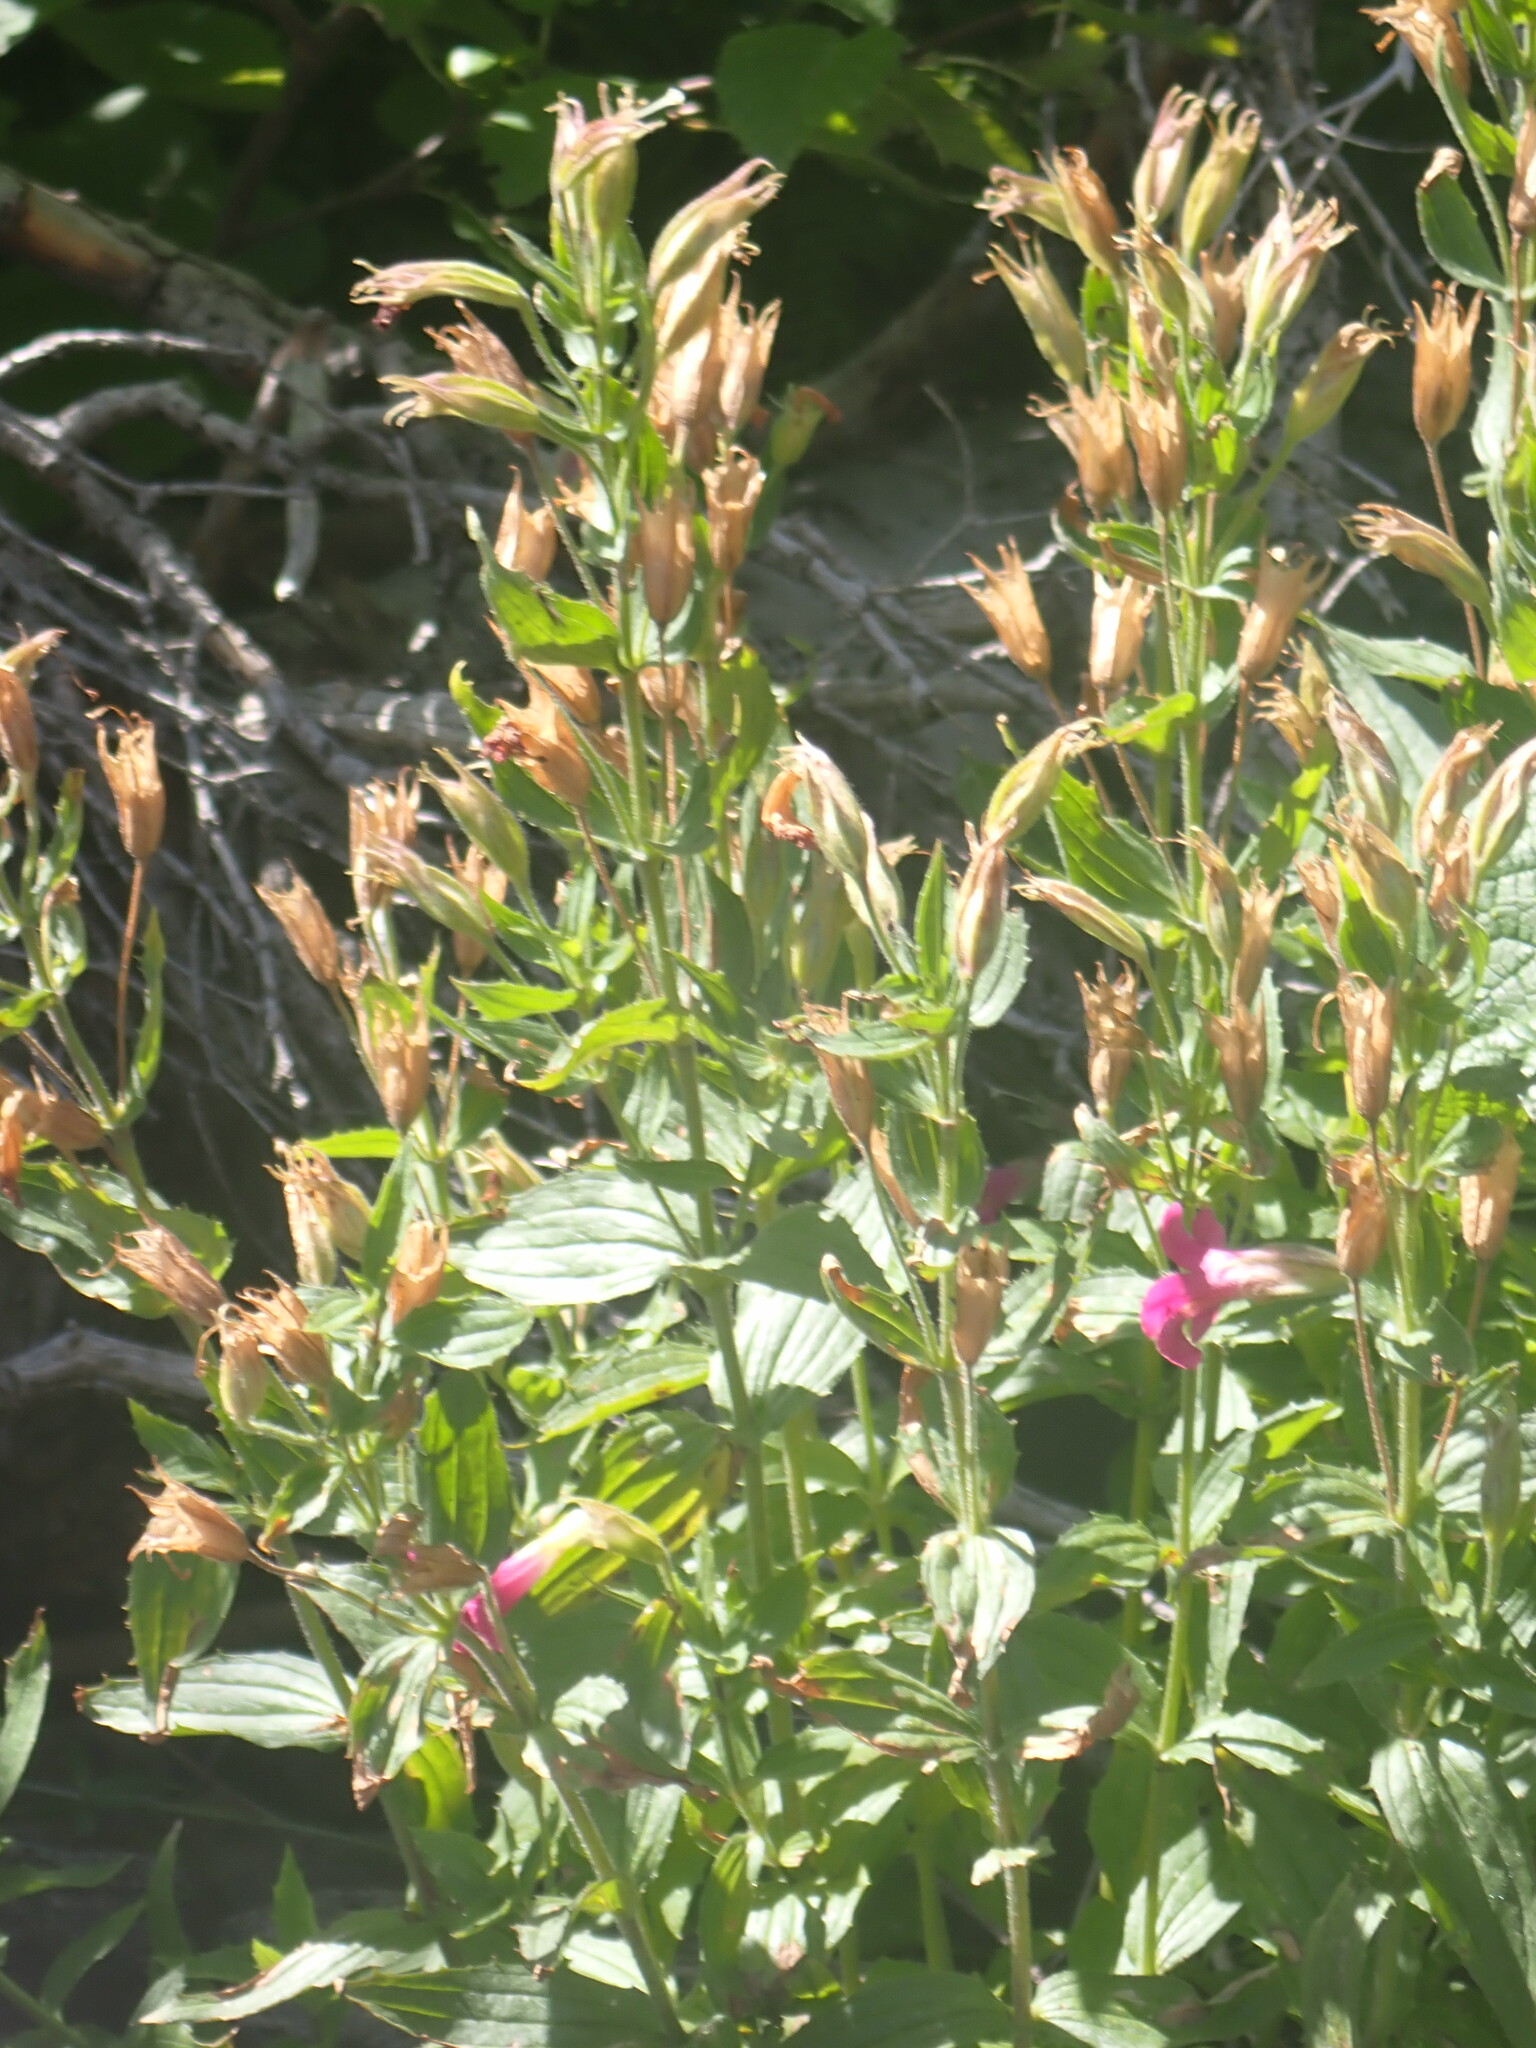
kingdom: Plantae
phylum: Tracheophyta
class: Magnoliopsida
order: Lamiales
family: Phrymaceae
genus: Erythranthe
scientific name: Erythranthe lewisii
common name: Lewis's monkey-flower
